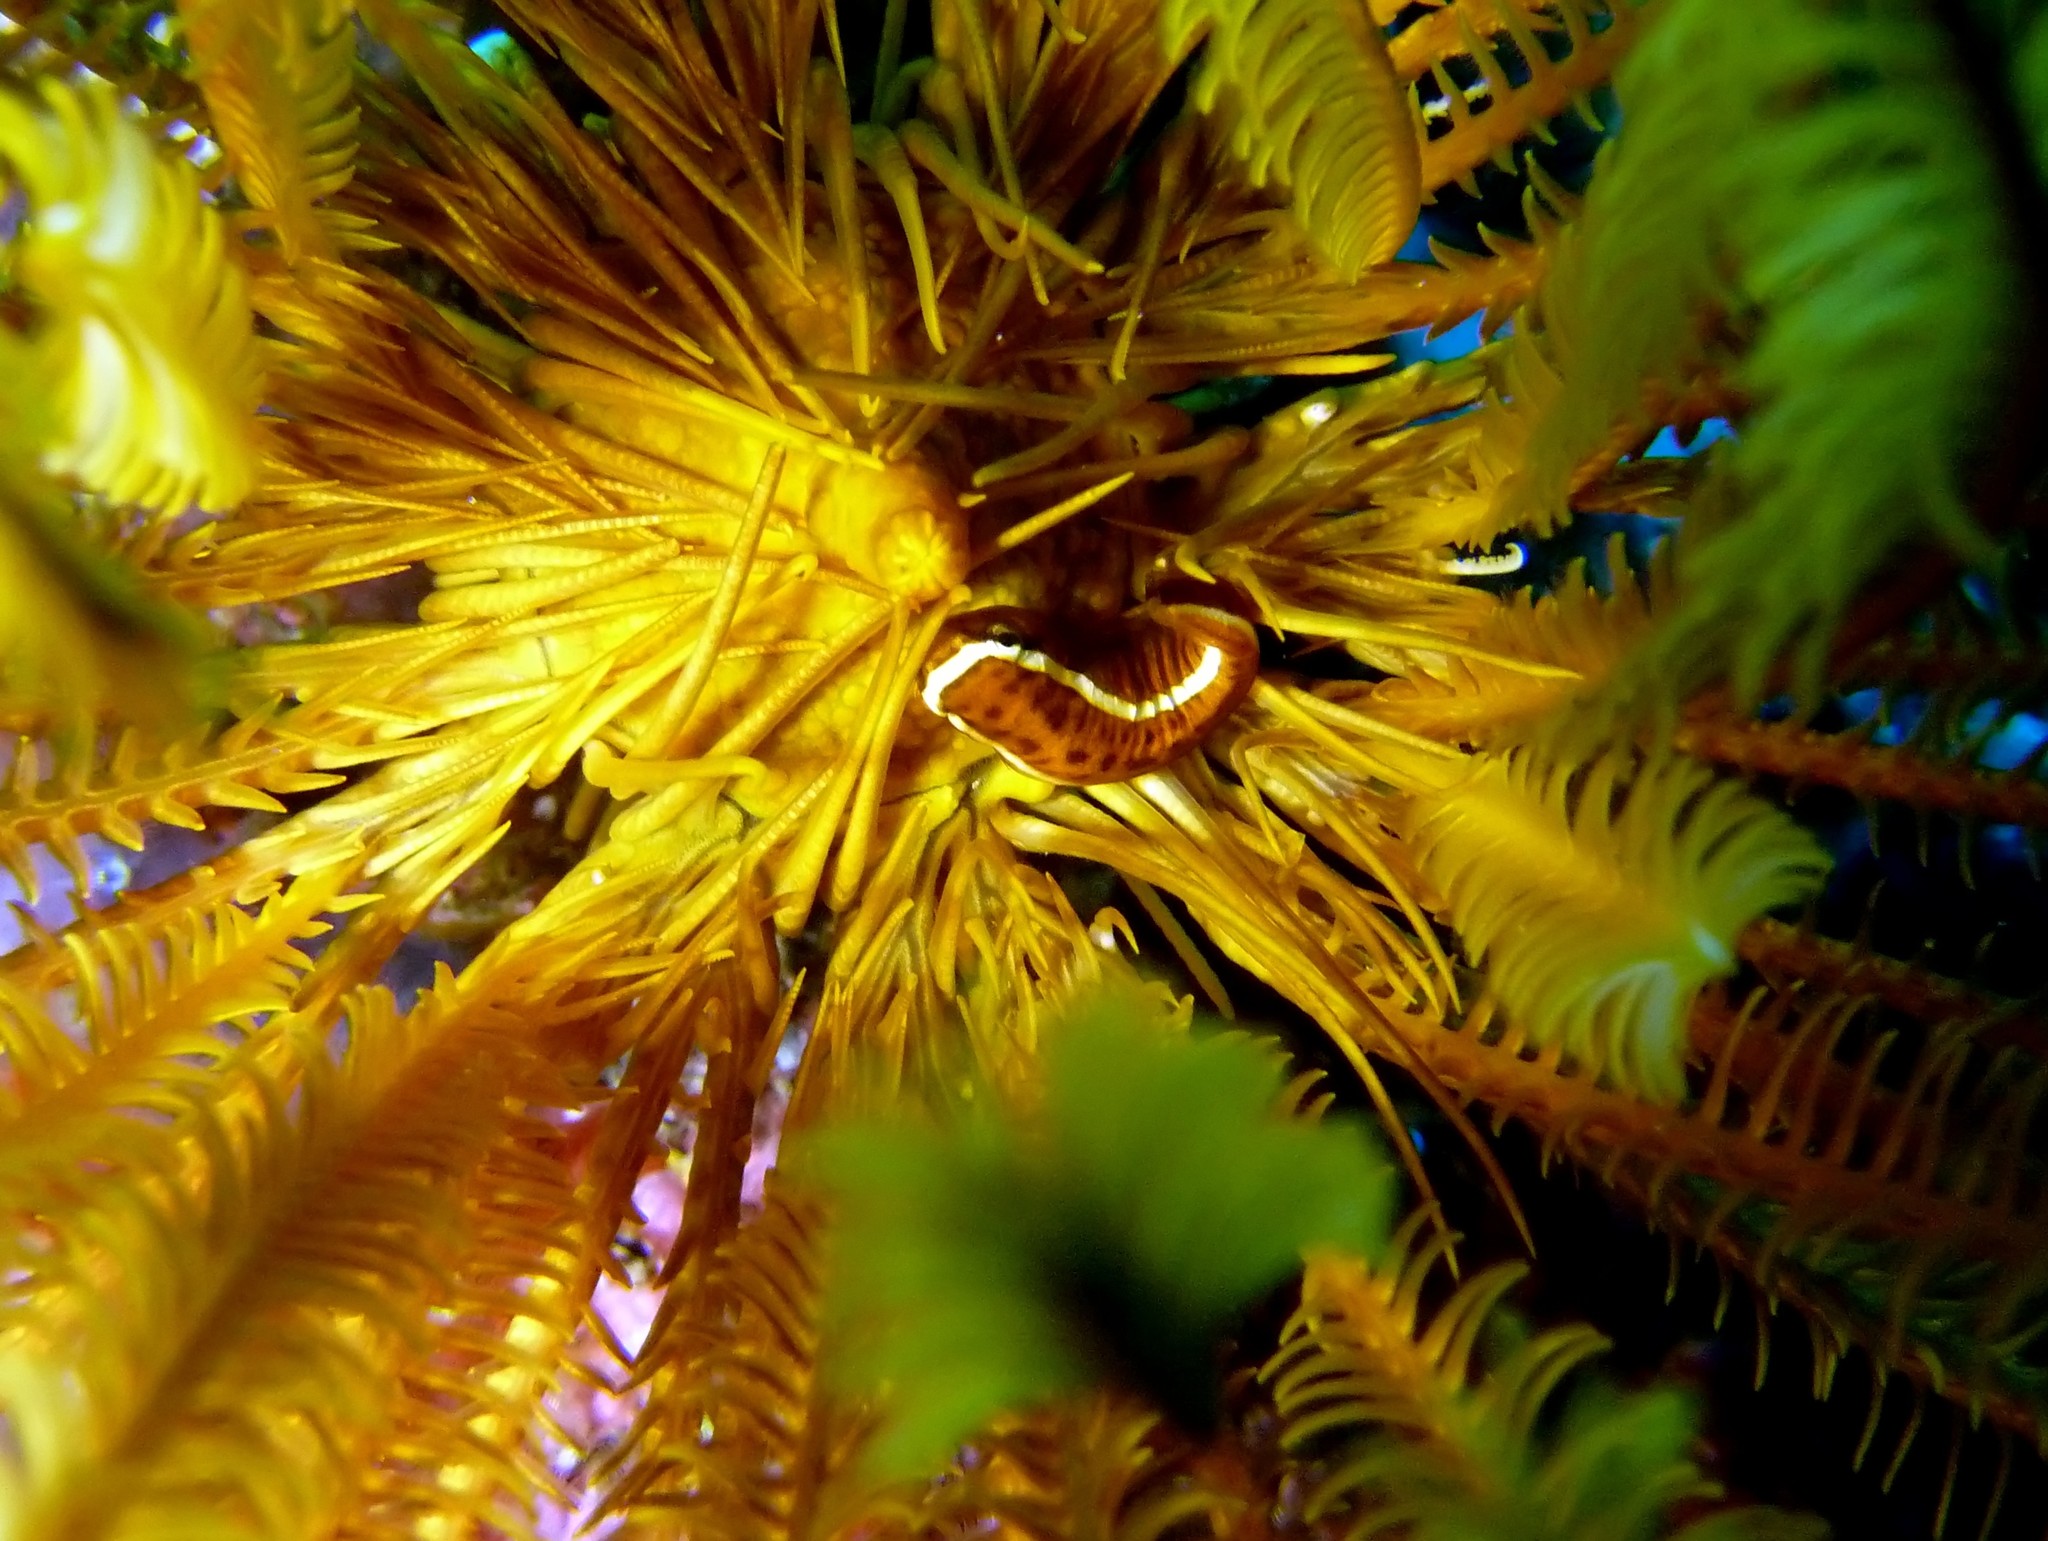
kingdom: Animalia
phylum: Chordata
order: Gobiesociformes
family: Gobiesocidae
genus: Discotrema
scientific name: Discotrema monogrammum
